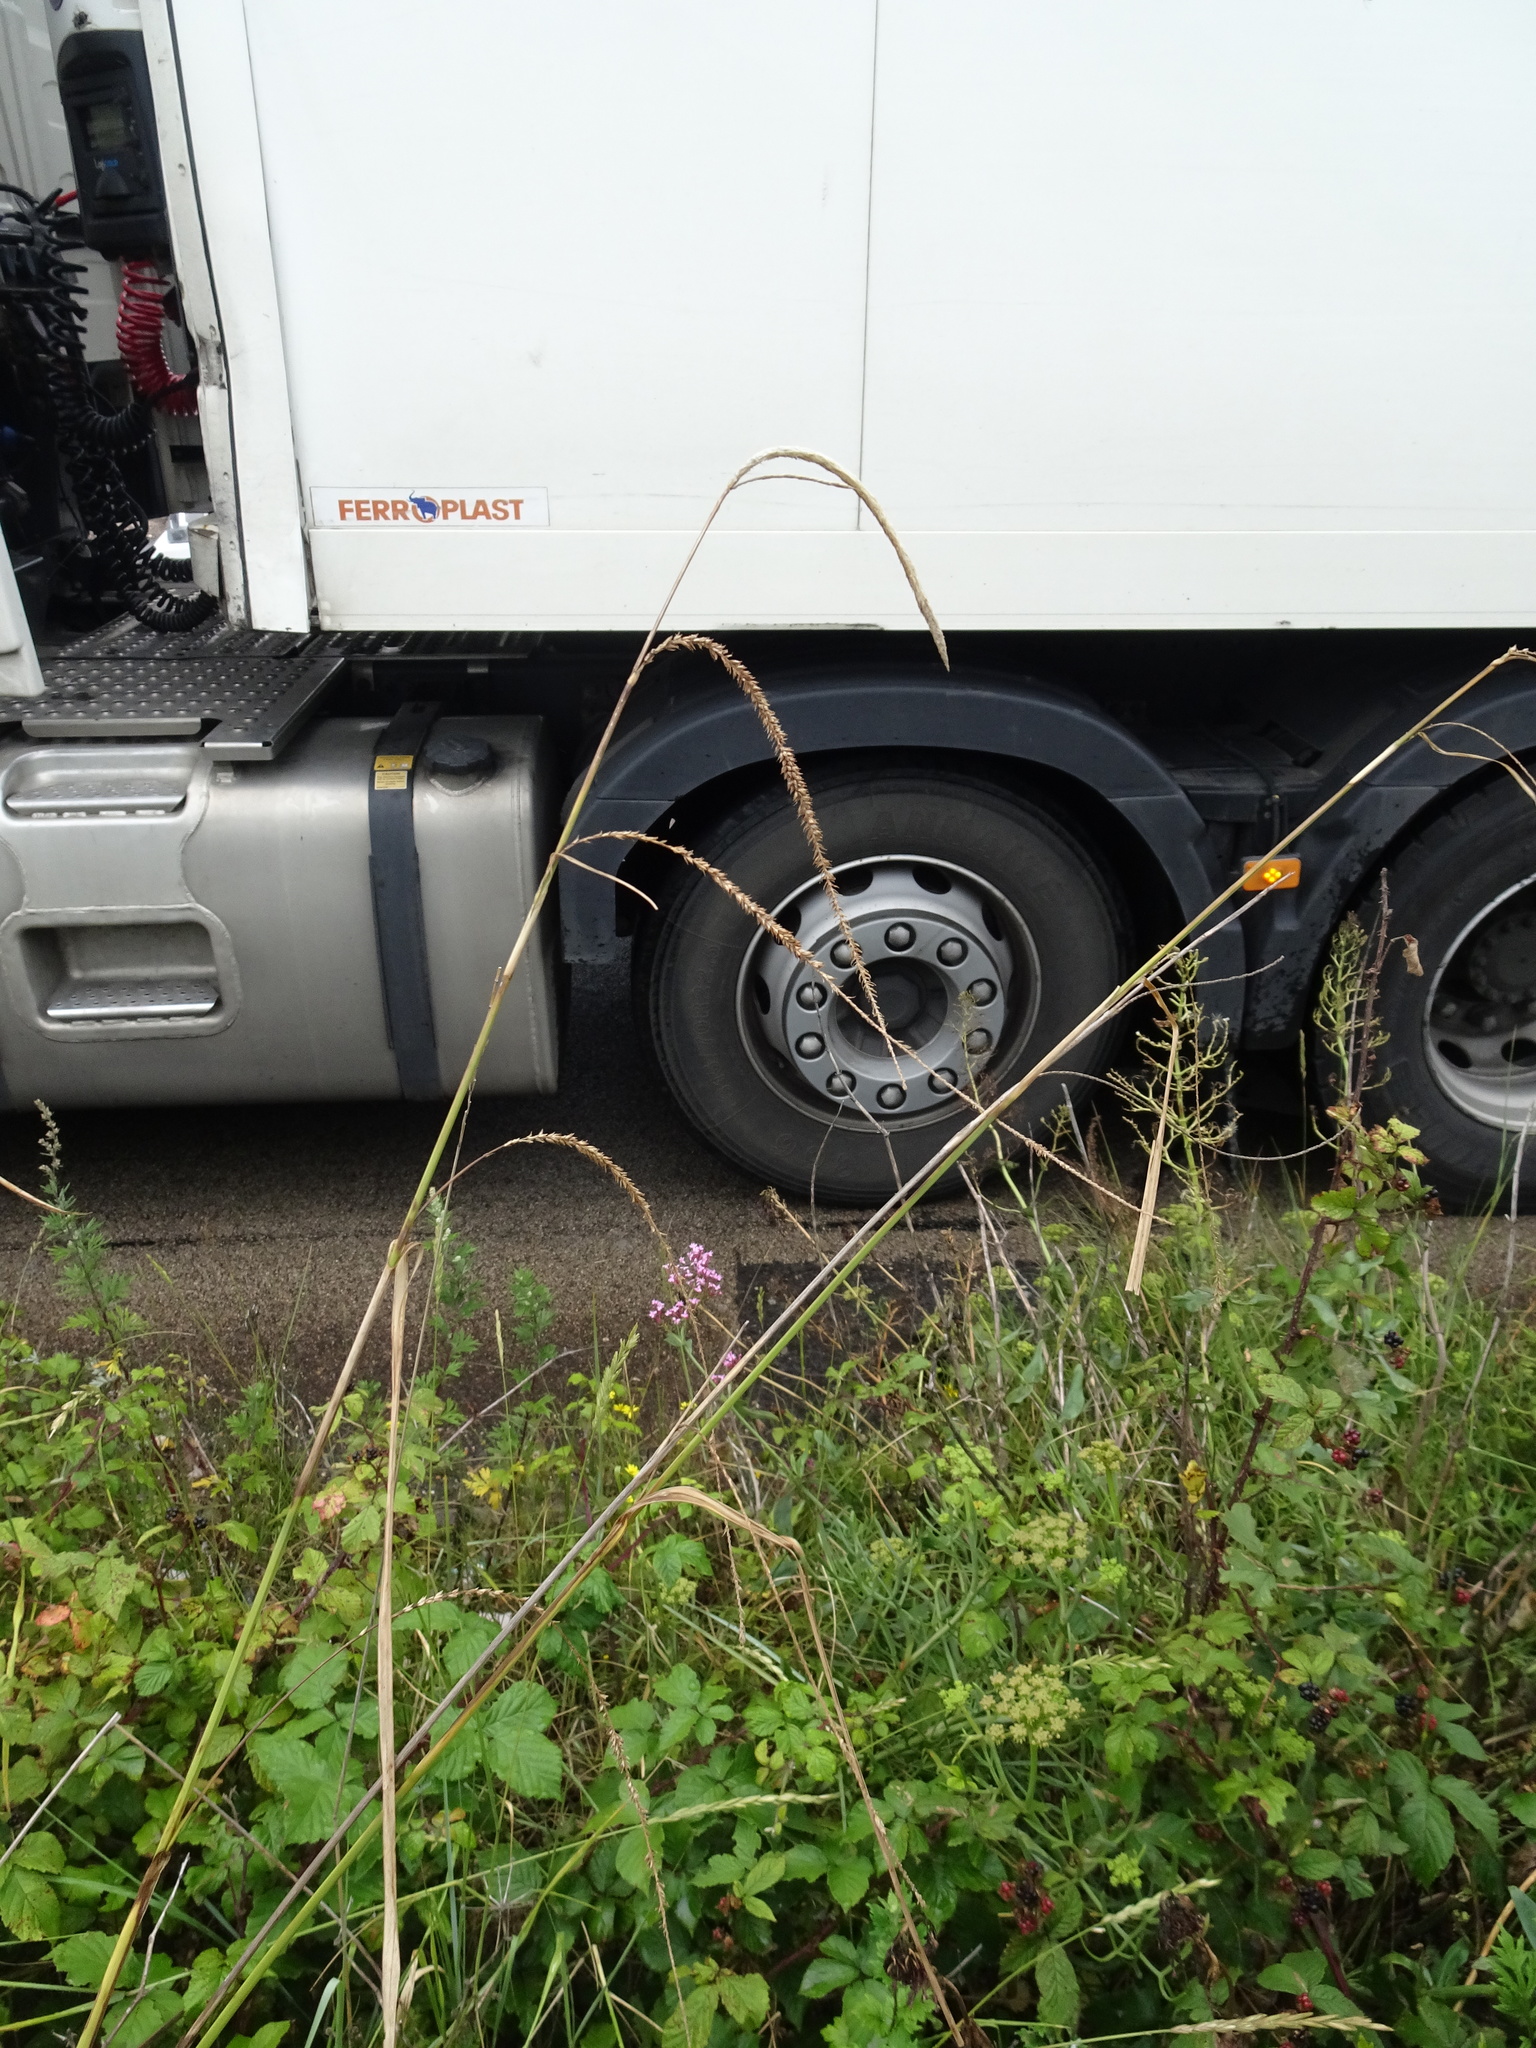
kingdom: Plantae
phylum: Tracheophyta
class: Liliopsida
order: Poales
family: Cyperaceae
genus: Carex
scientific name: Carex pendula
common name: Pendulous sedge
